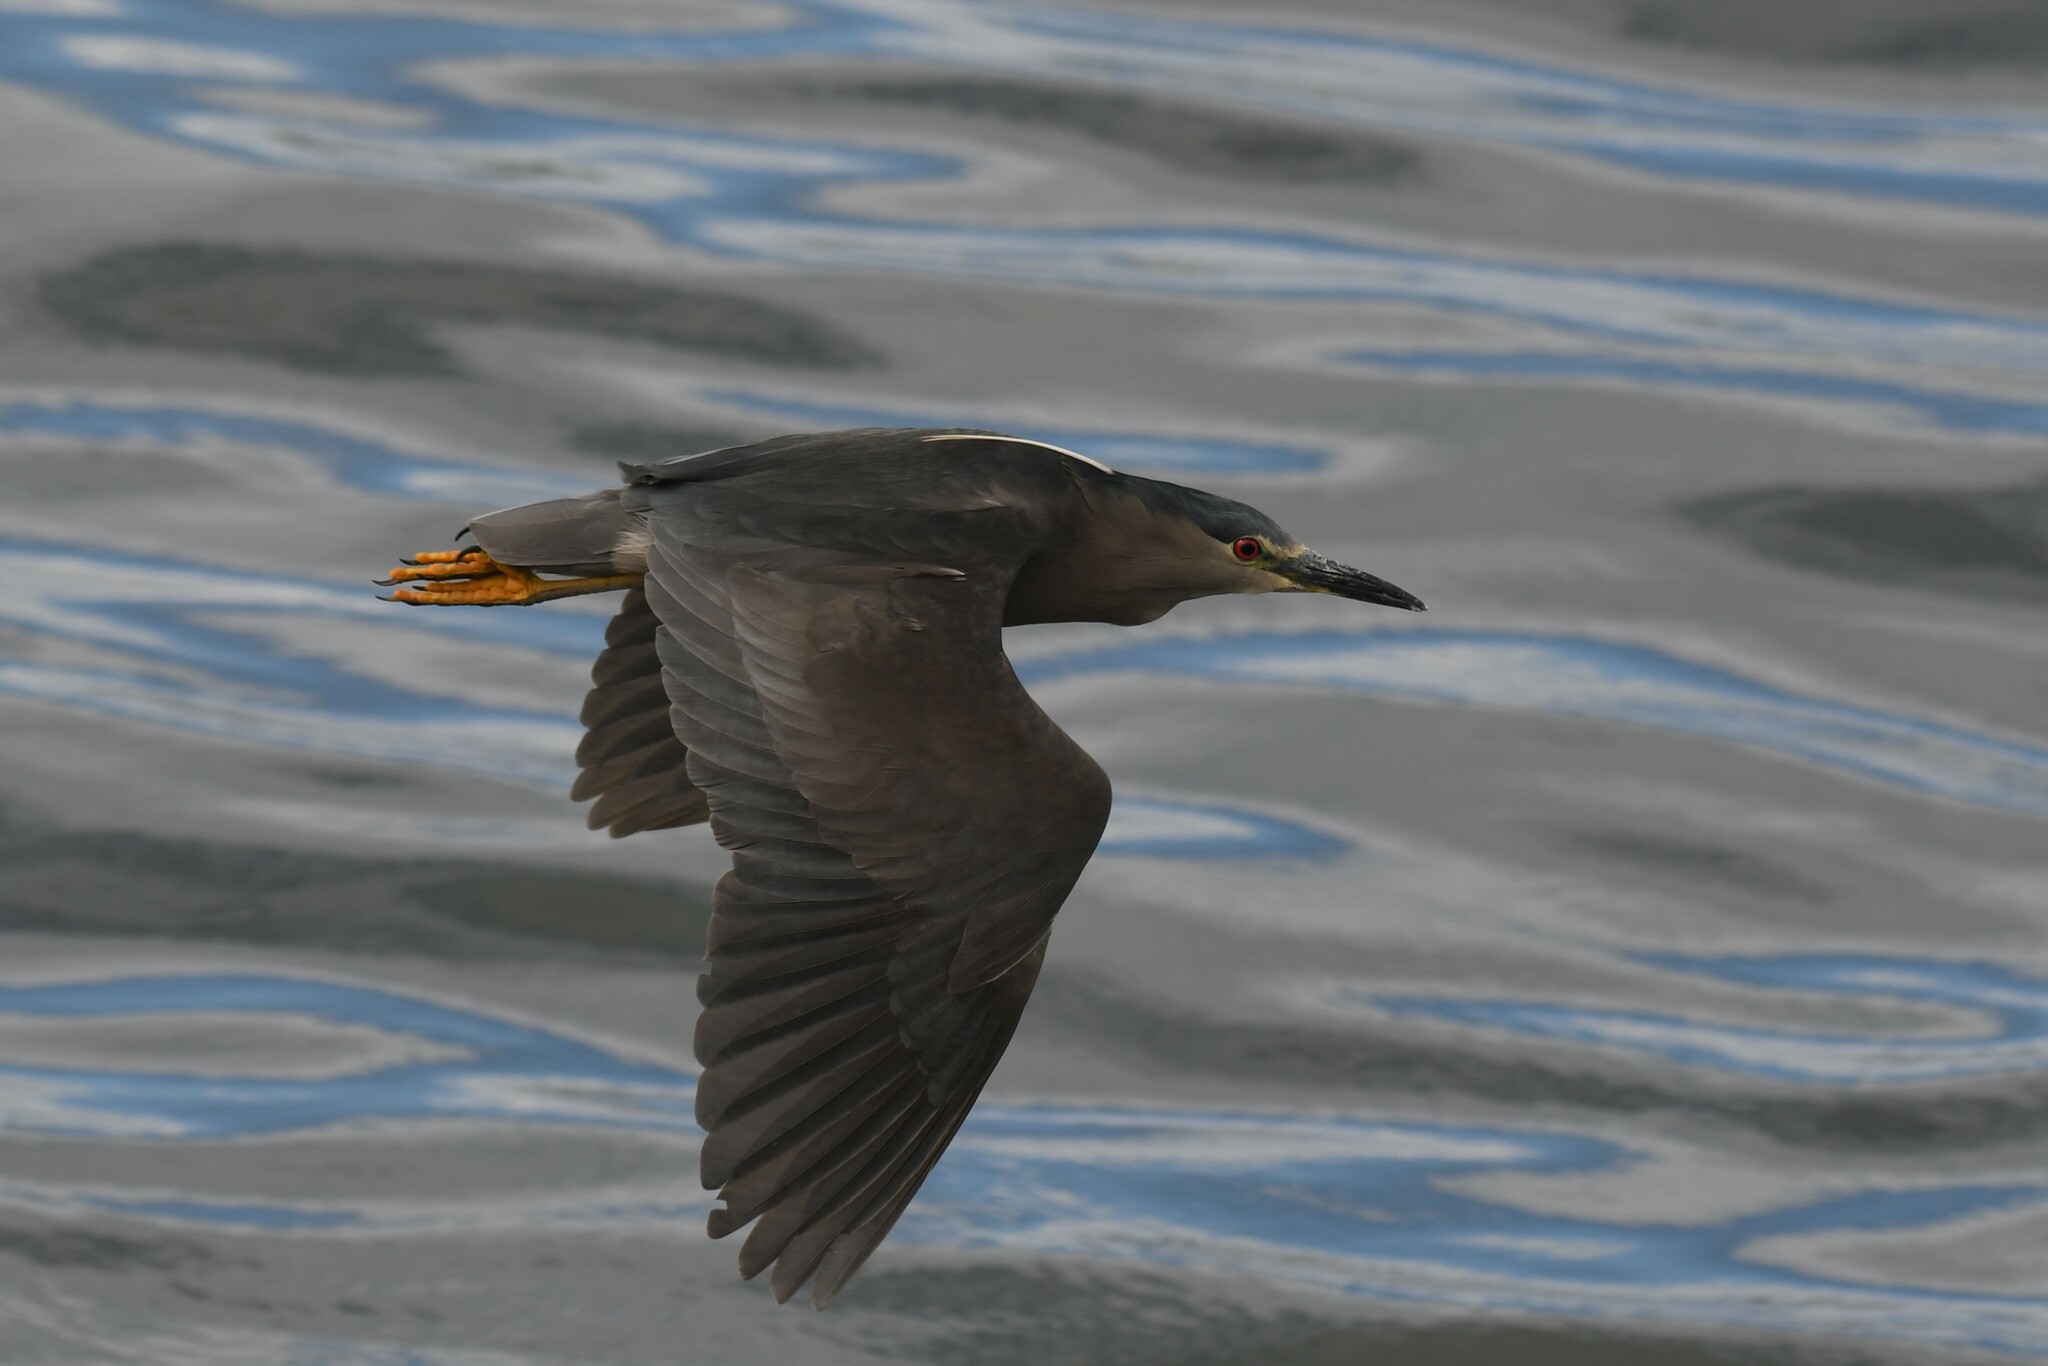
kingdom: Animalia
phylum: Chordata
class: Aves
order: Pelecaniformes
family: Ardeidae
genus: Nycticorax
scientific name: Nycticorax nycticorax
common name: Black-crowned night heron
